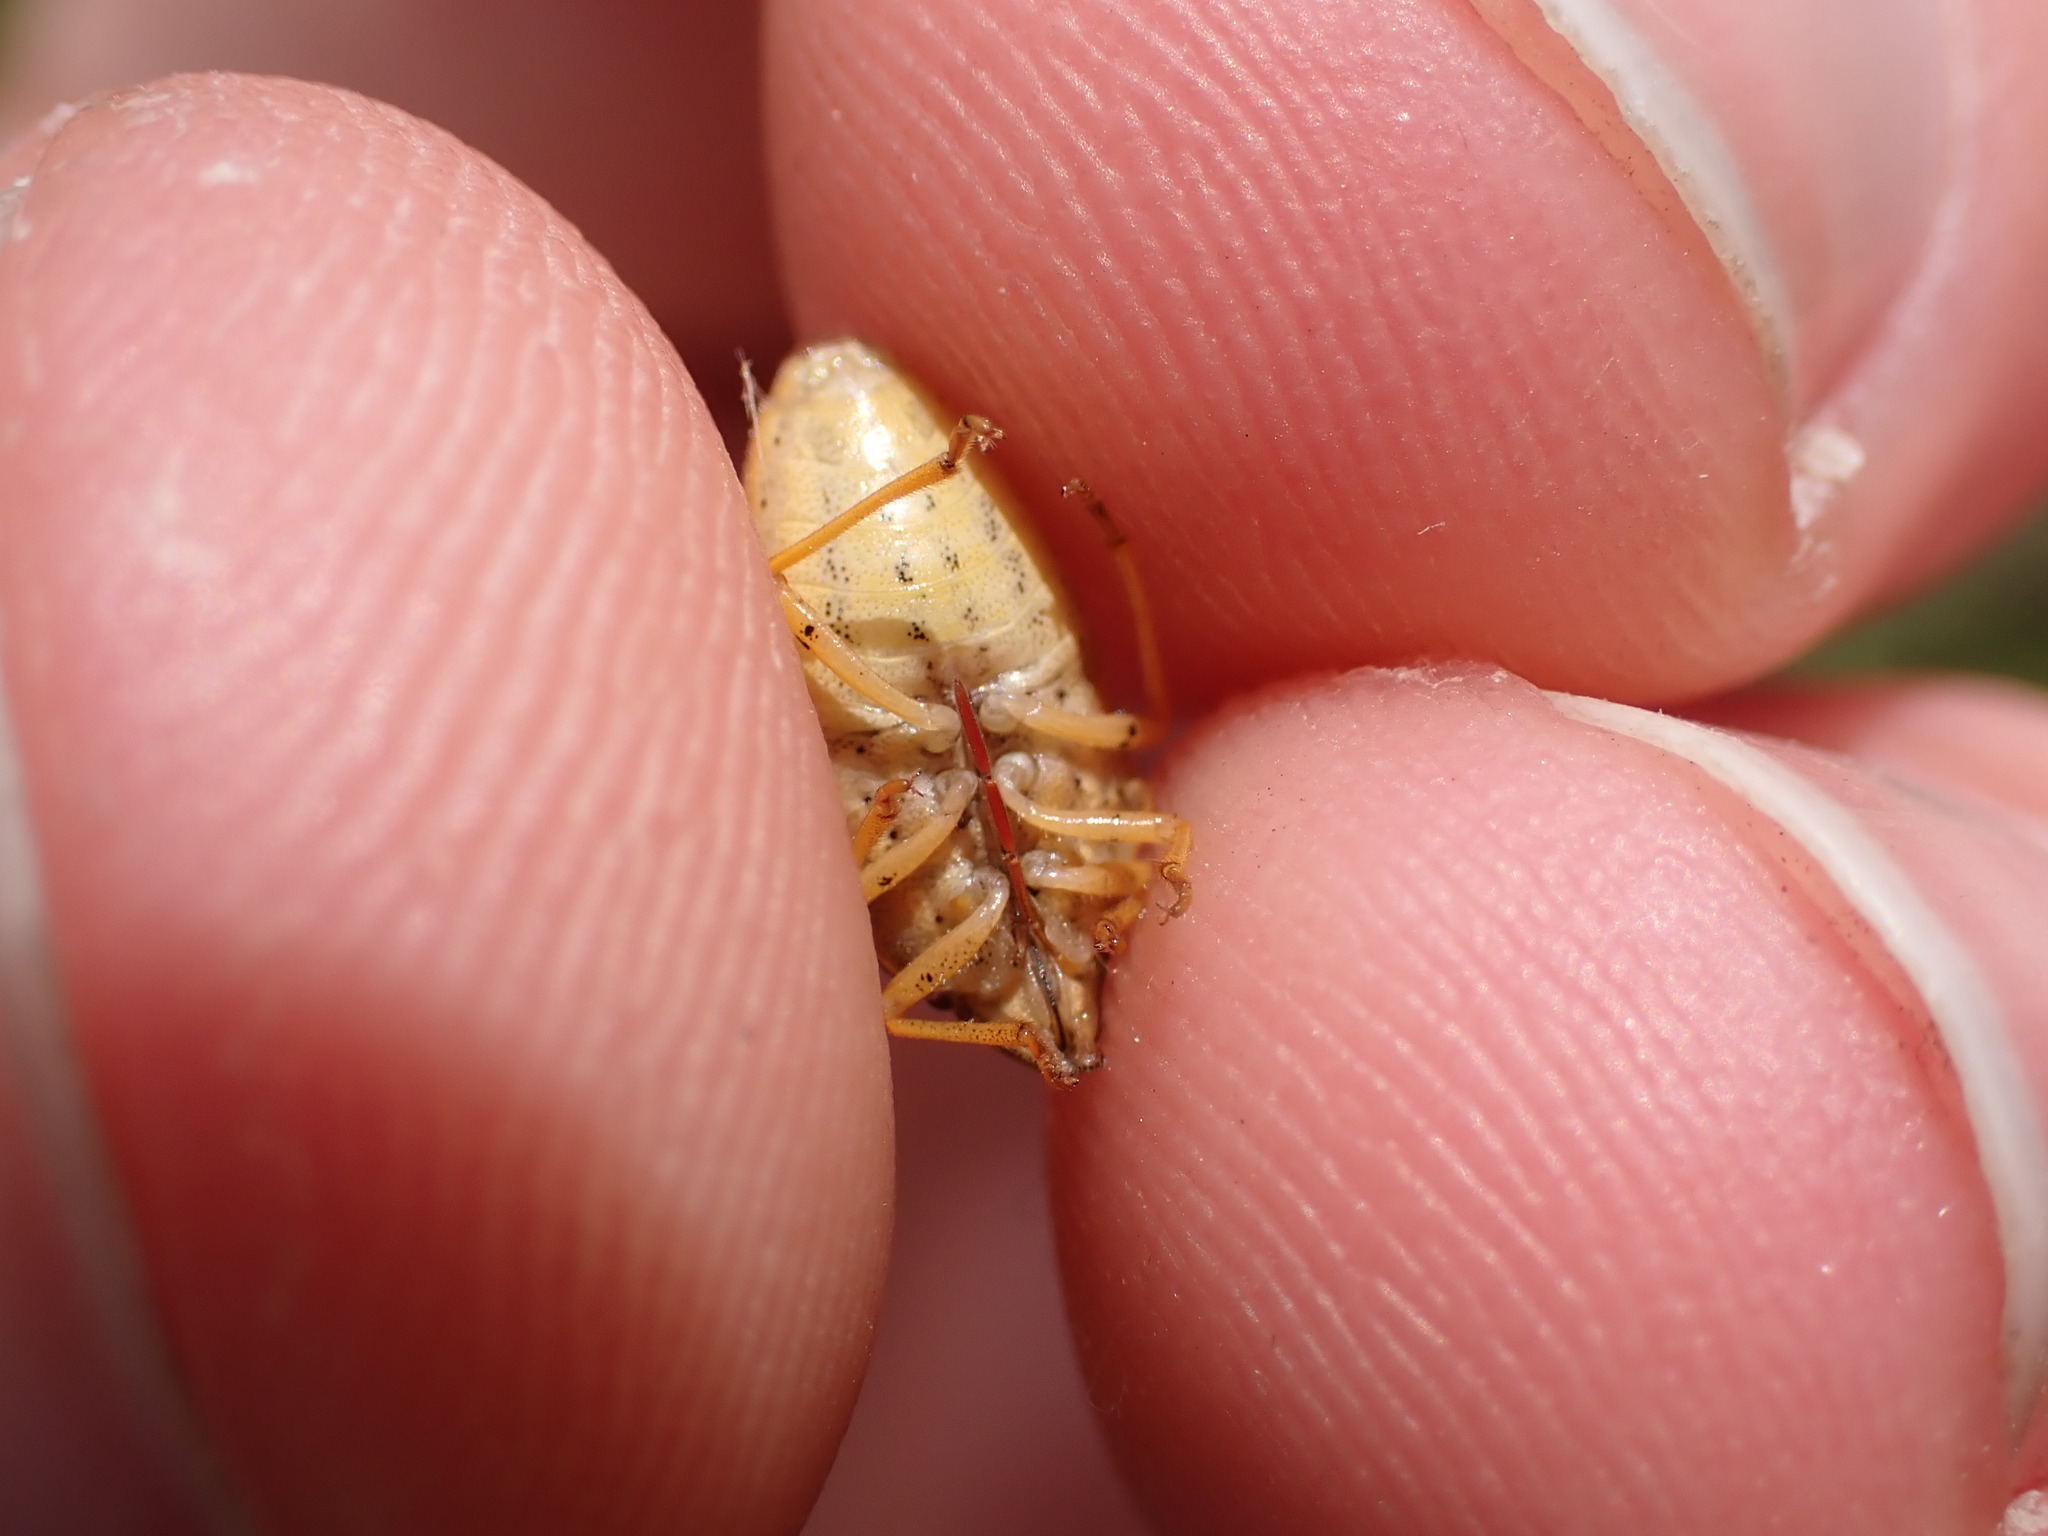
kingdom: Animalia
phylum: Arthropoda
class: Insecta
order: Hemiptera
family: Pentatomidae
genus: Aelia
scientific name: Aelia acuminata
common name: Bishop's mitre
